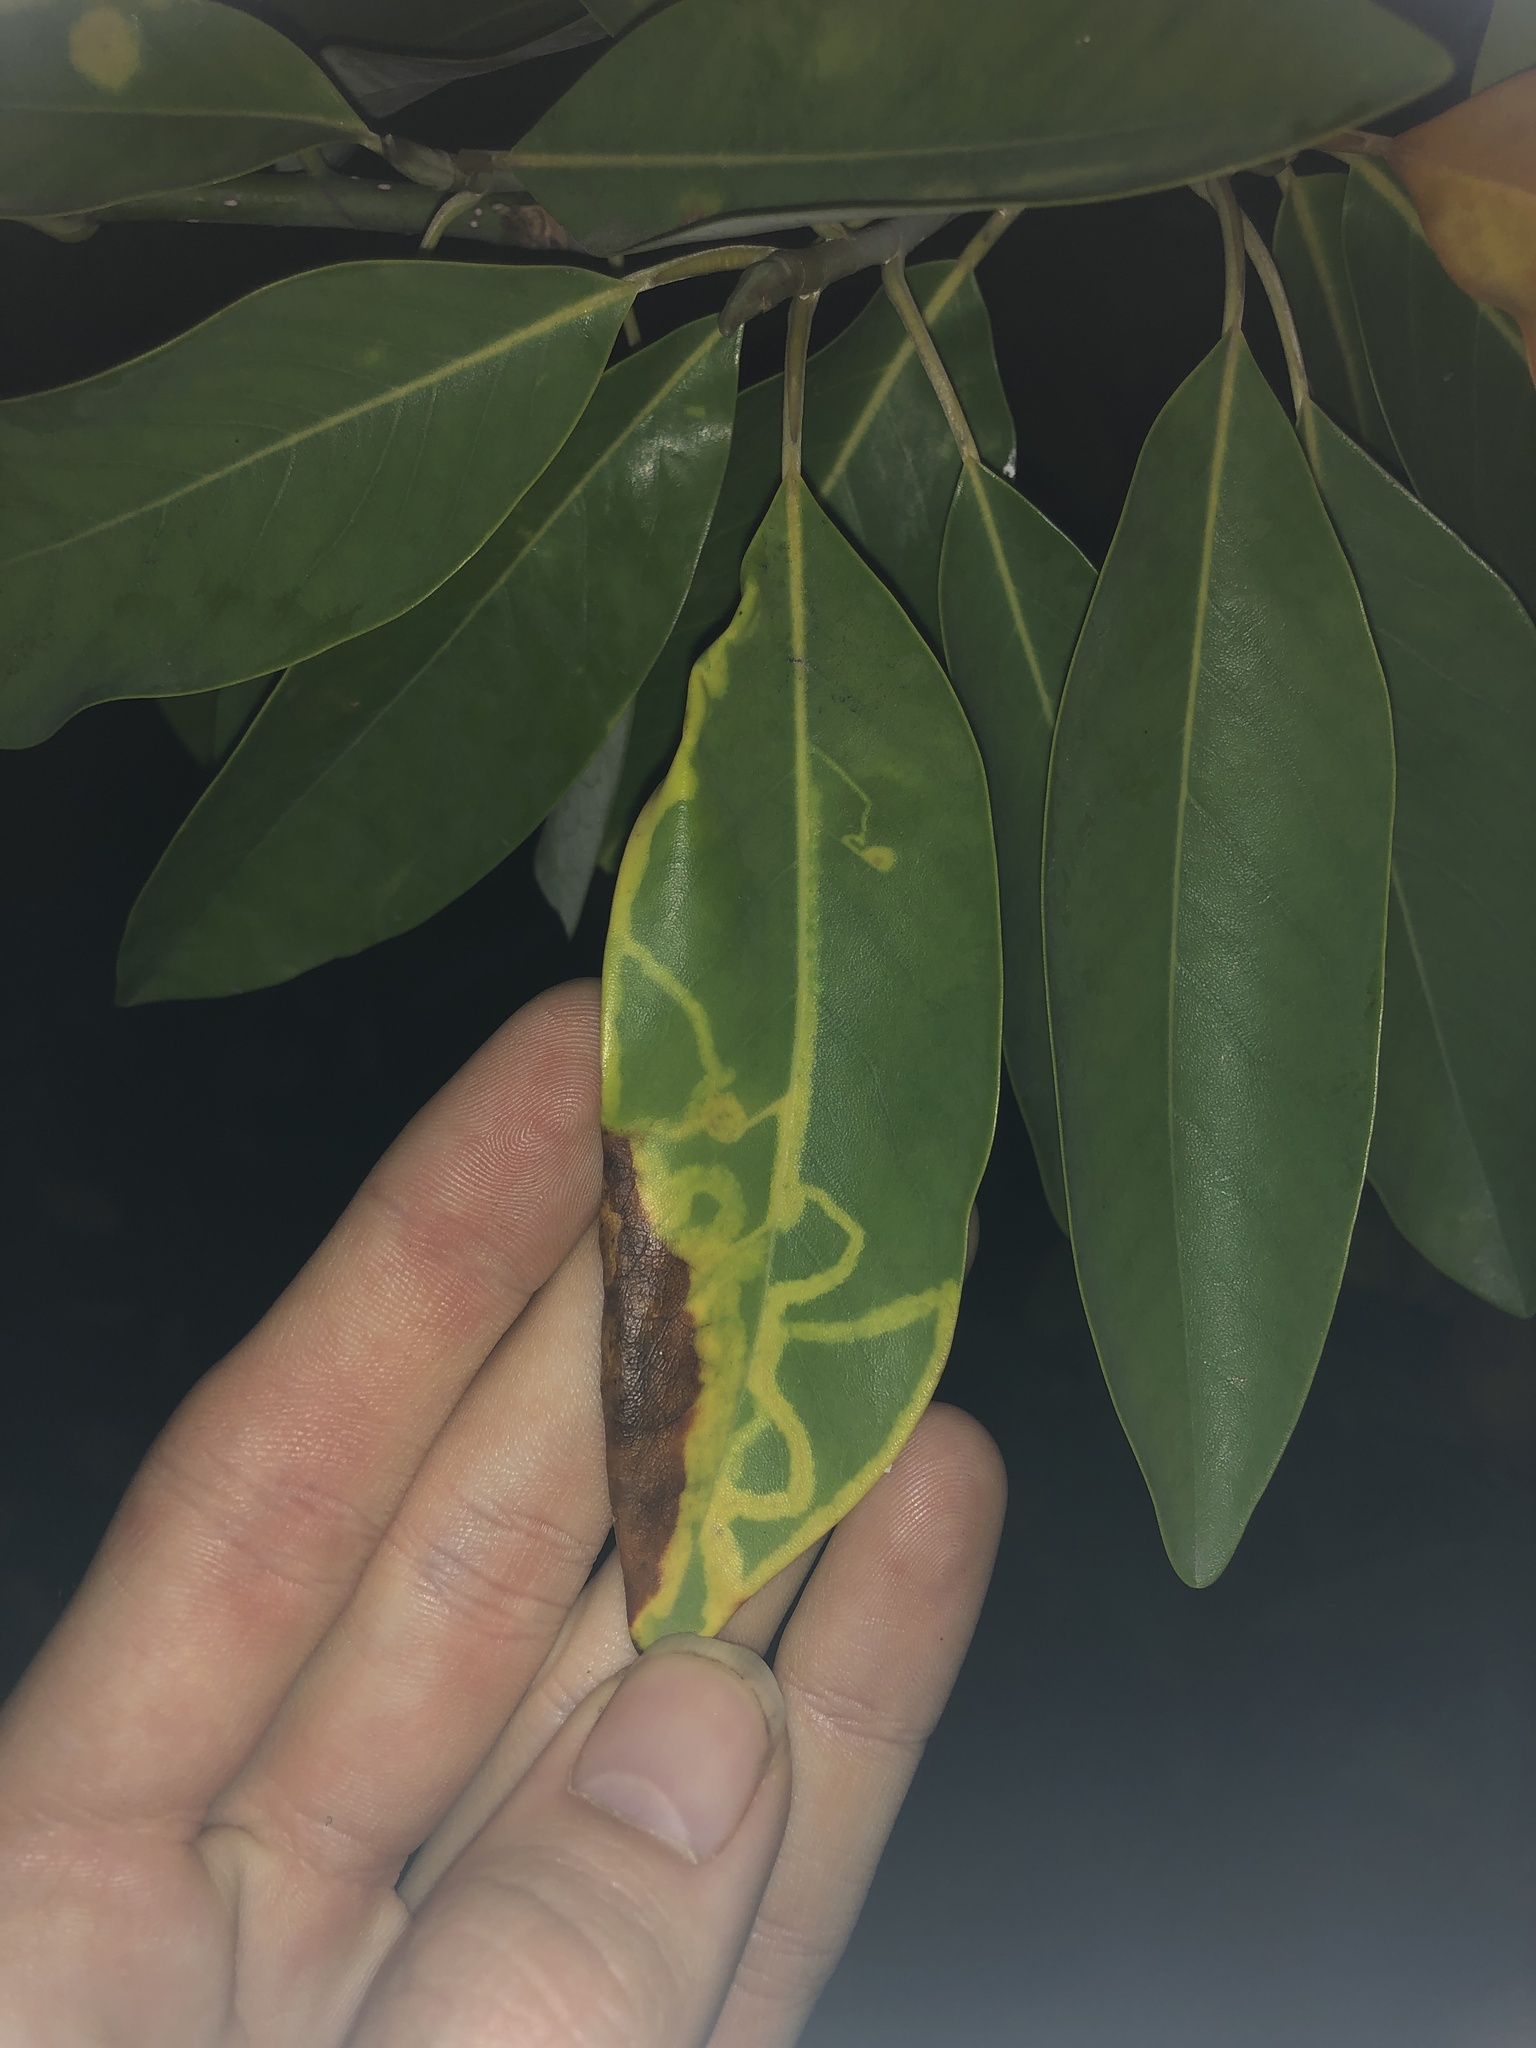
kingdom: Animalia
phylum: Arthropoda
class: Insecta
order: Lepidoptera
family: Gracillariidae
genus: Phyllocnistis
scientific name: Phyllocnistis liriodendronella
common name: Tulip tree leaf miner
